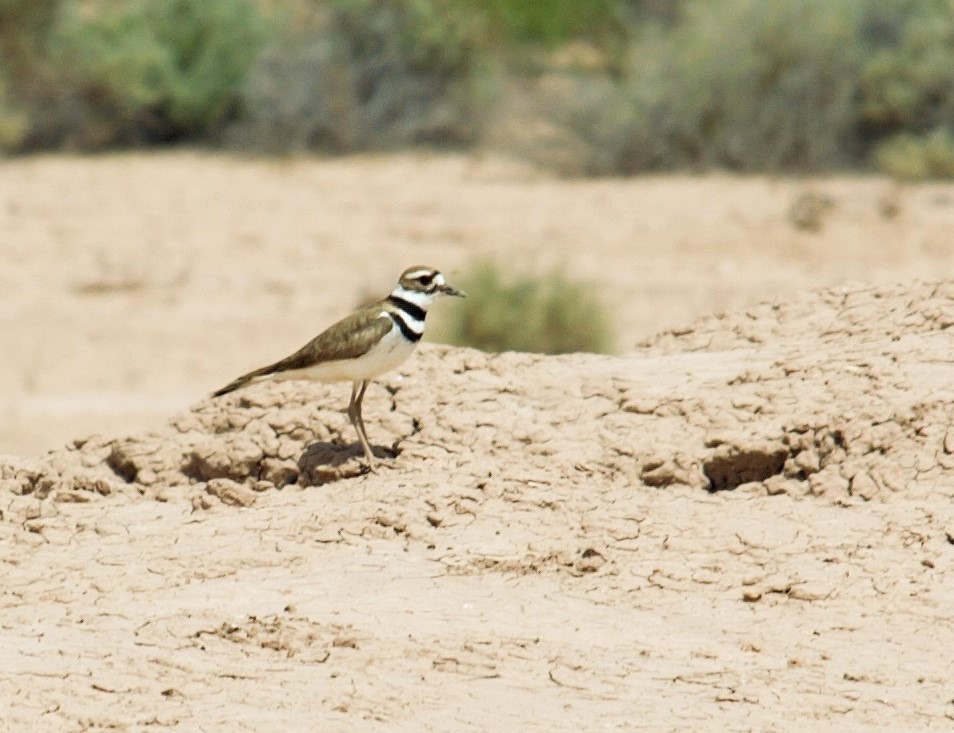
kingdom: Animalia
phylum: Chordata
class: Aves
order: Charadriiformes
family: Charadriidae
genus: Charadrius
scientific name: Charadrius vociferus
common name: Killdeer
